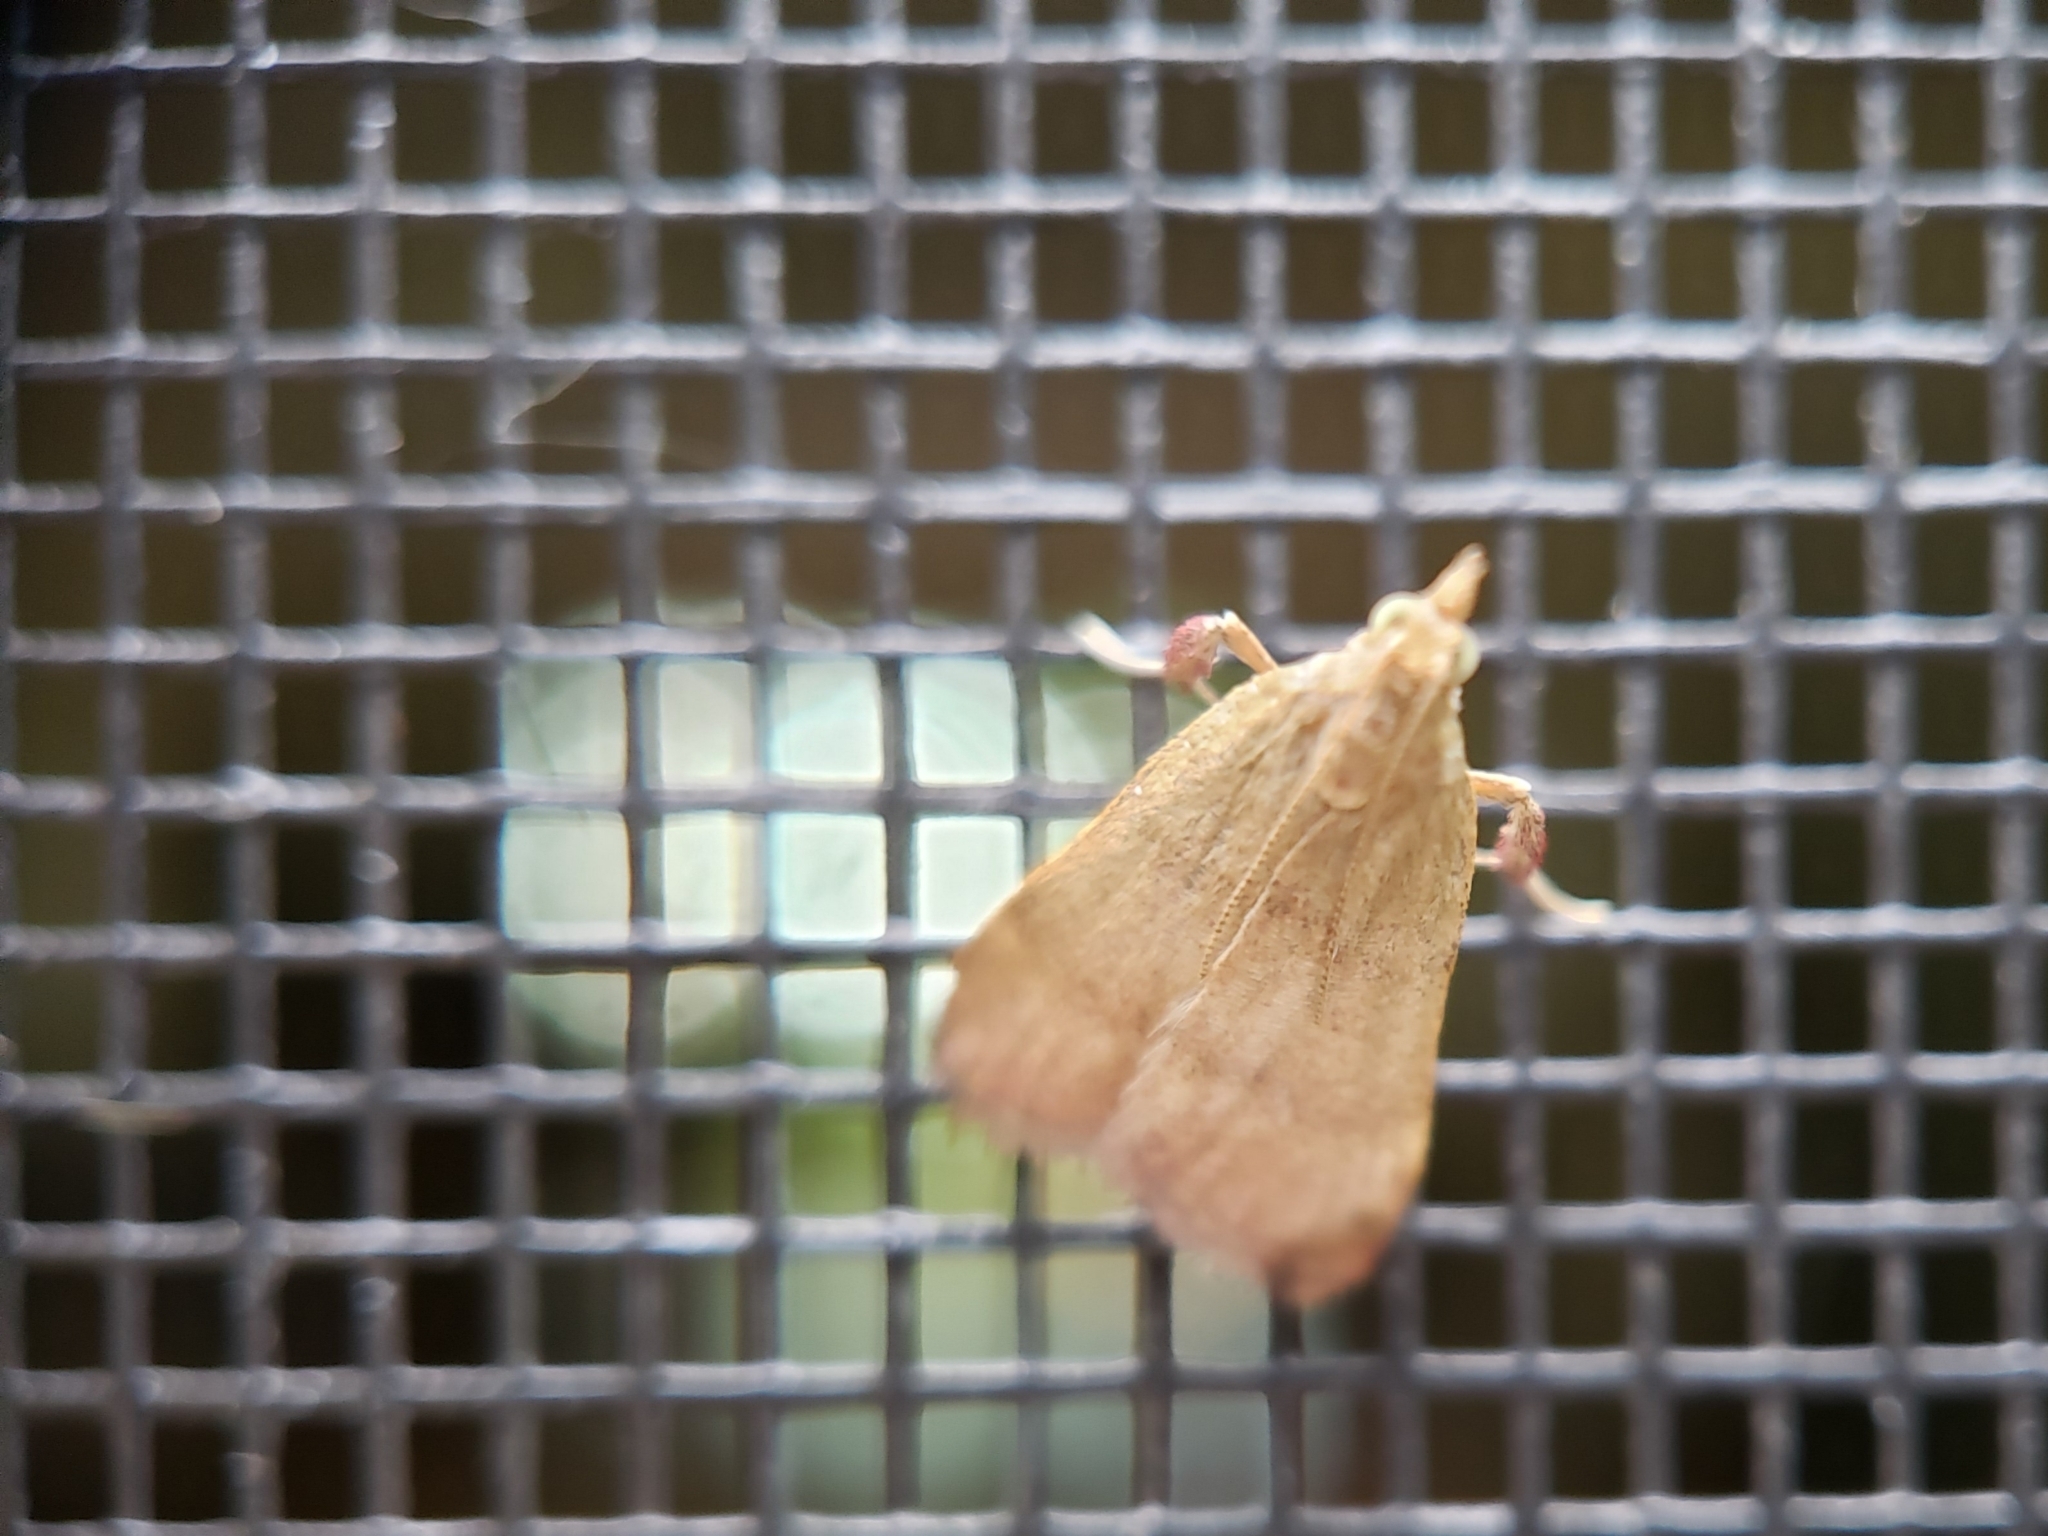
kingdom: Animalia
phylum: Arthropoda
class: Insecta
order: Lepidoptera
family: Pyralidae
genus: Condylolomia
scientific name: Condylolomia participialis
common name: Drab condylolomia moth
